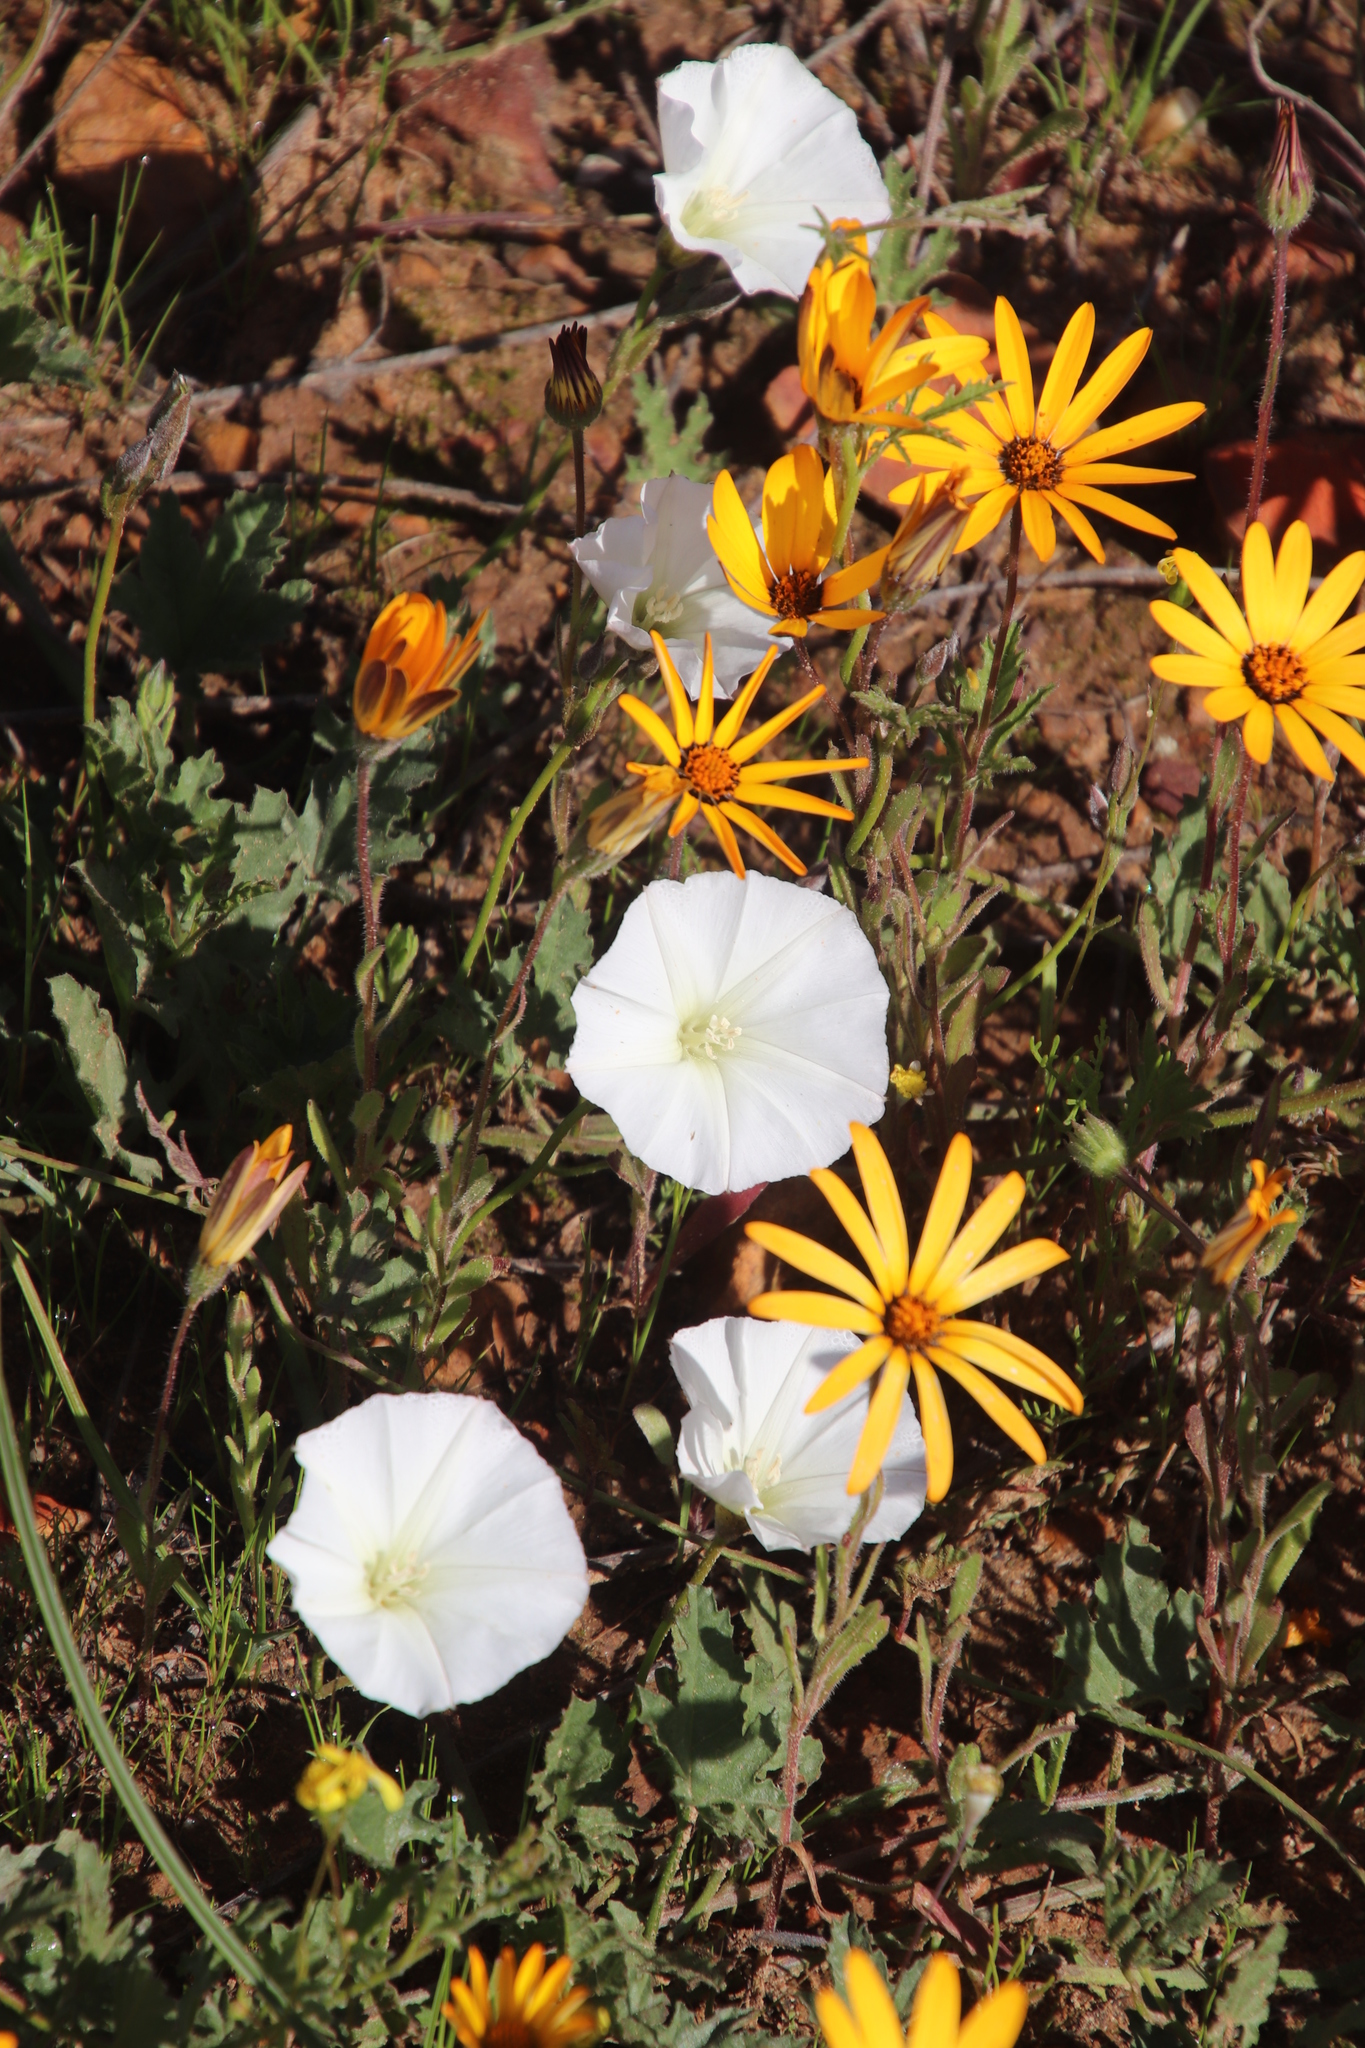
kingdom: Plantae
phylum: Tracheophyta
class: Magnoliopsida
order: Solanales
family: Convolvulaceae
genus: Convolvulus
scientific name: Convolvulus arvensis
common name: Field bindweed
